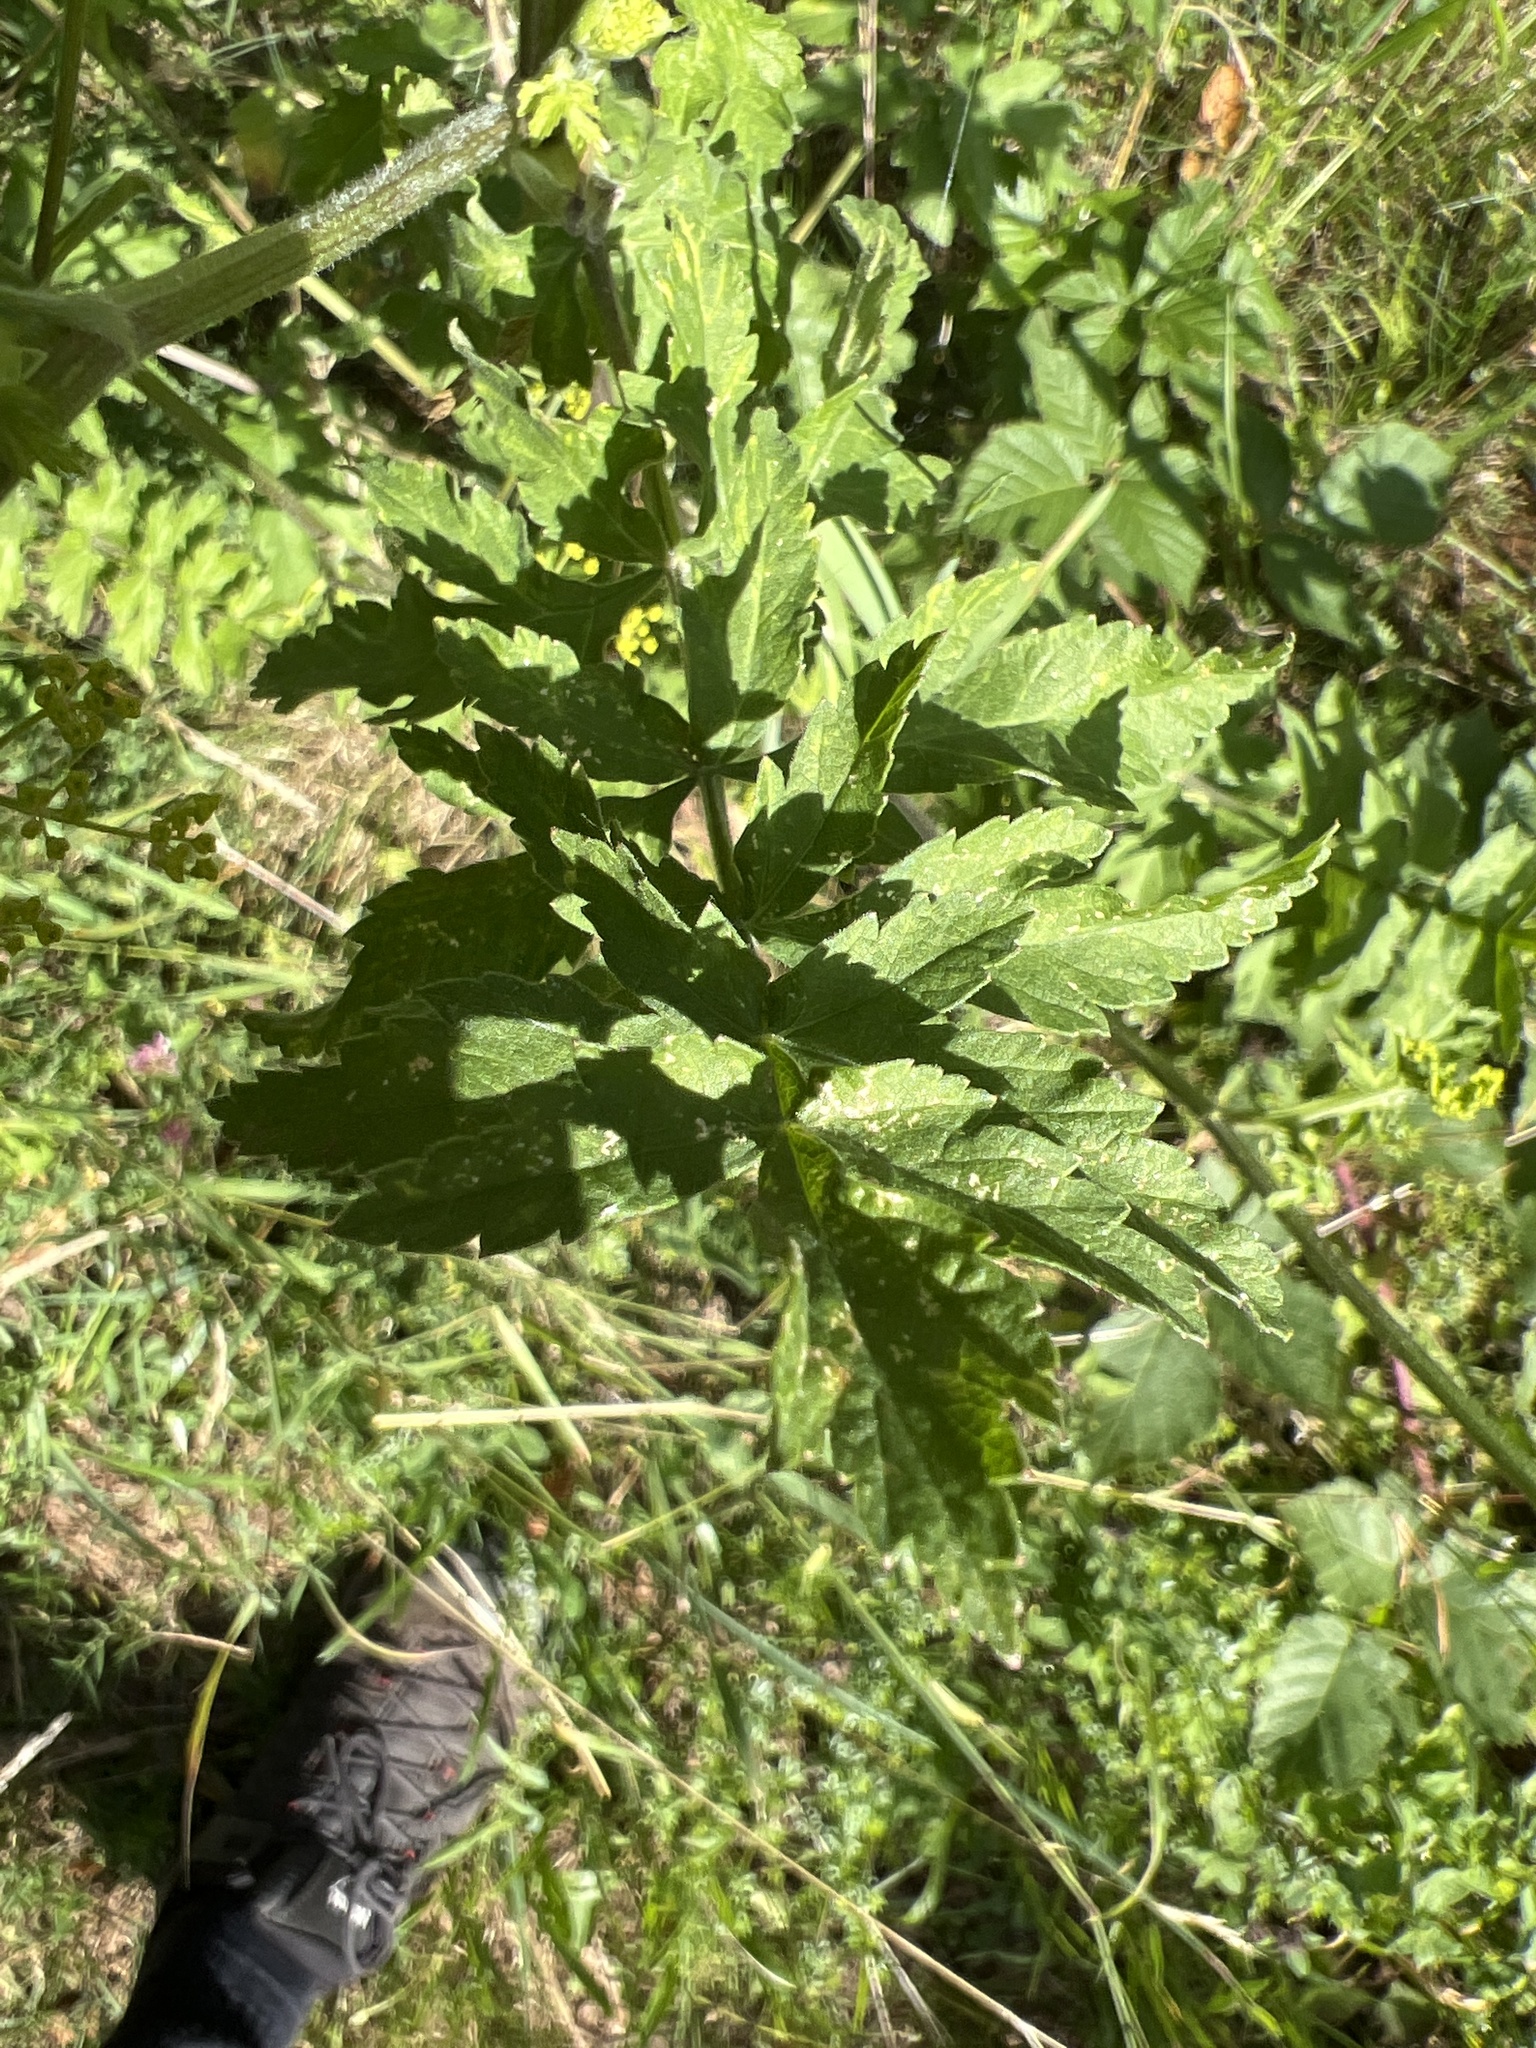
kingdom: Plantae
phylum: Tracheophyta
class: Magnoliopsida
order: Apiales
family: Apiaceae
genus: Pastinaca
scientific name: Pastinaca sativa
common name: Wild parsnip
